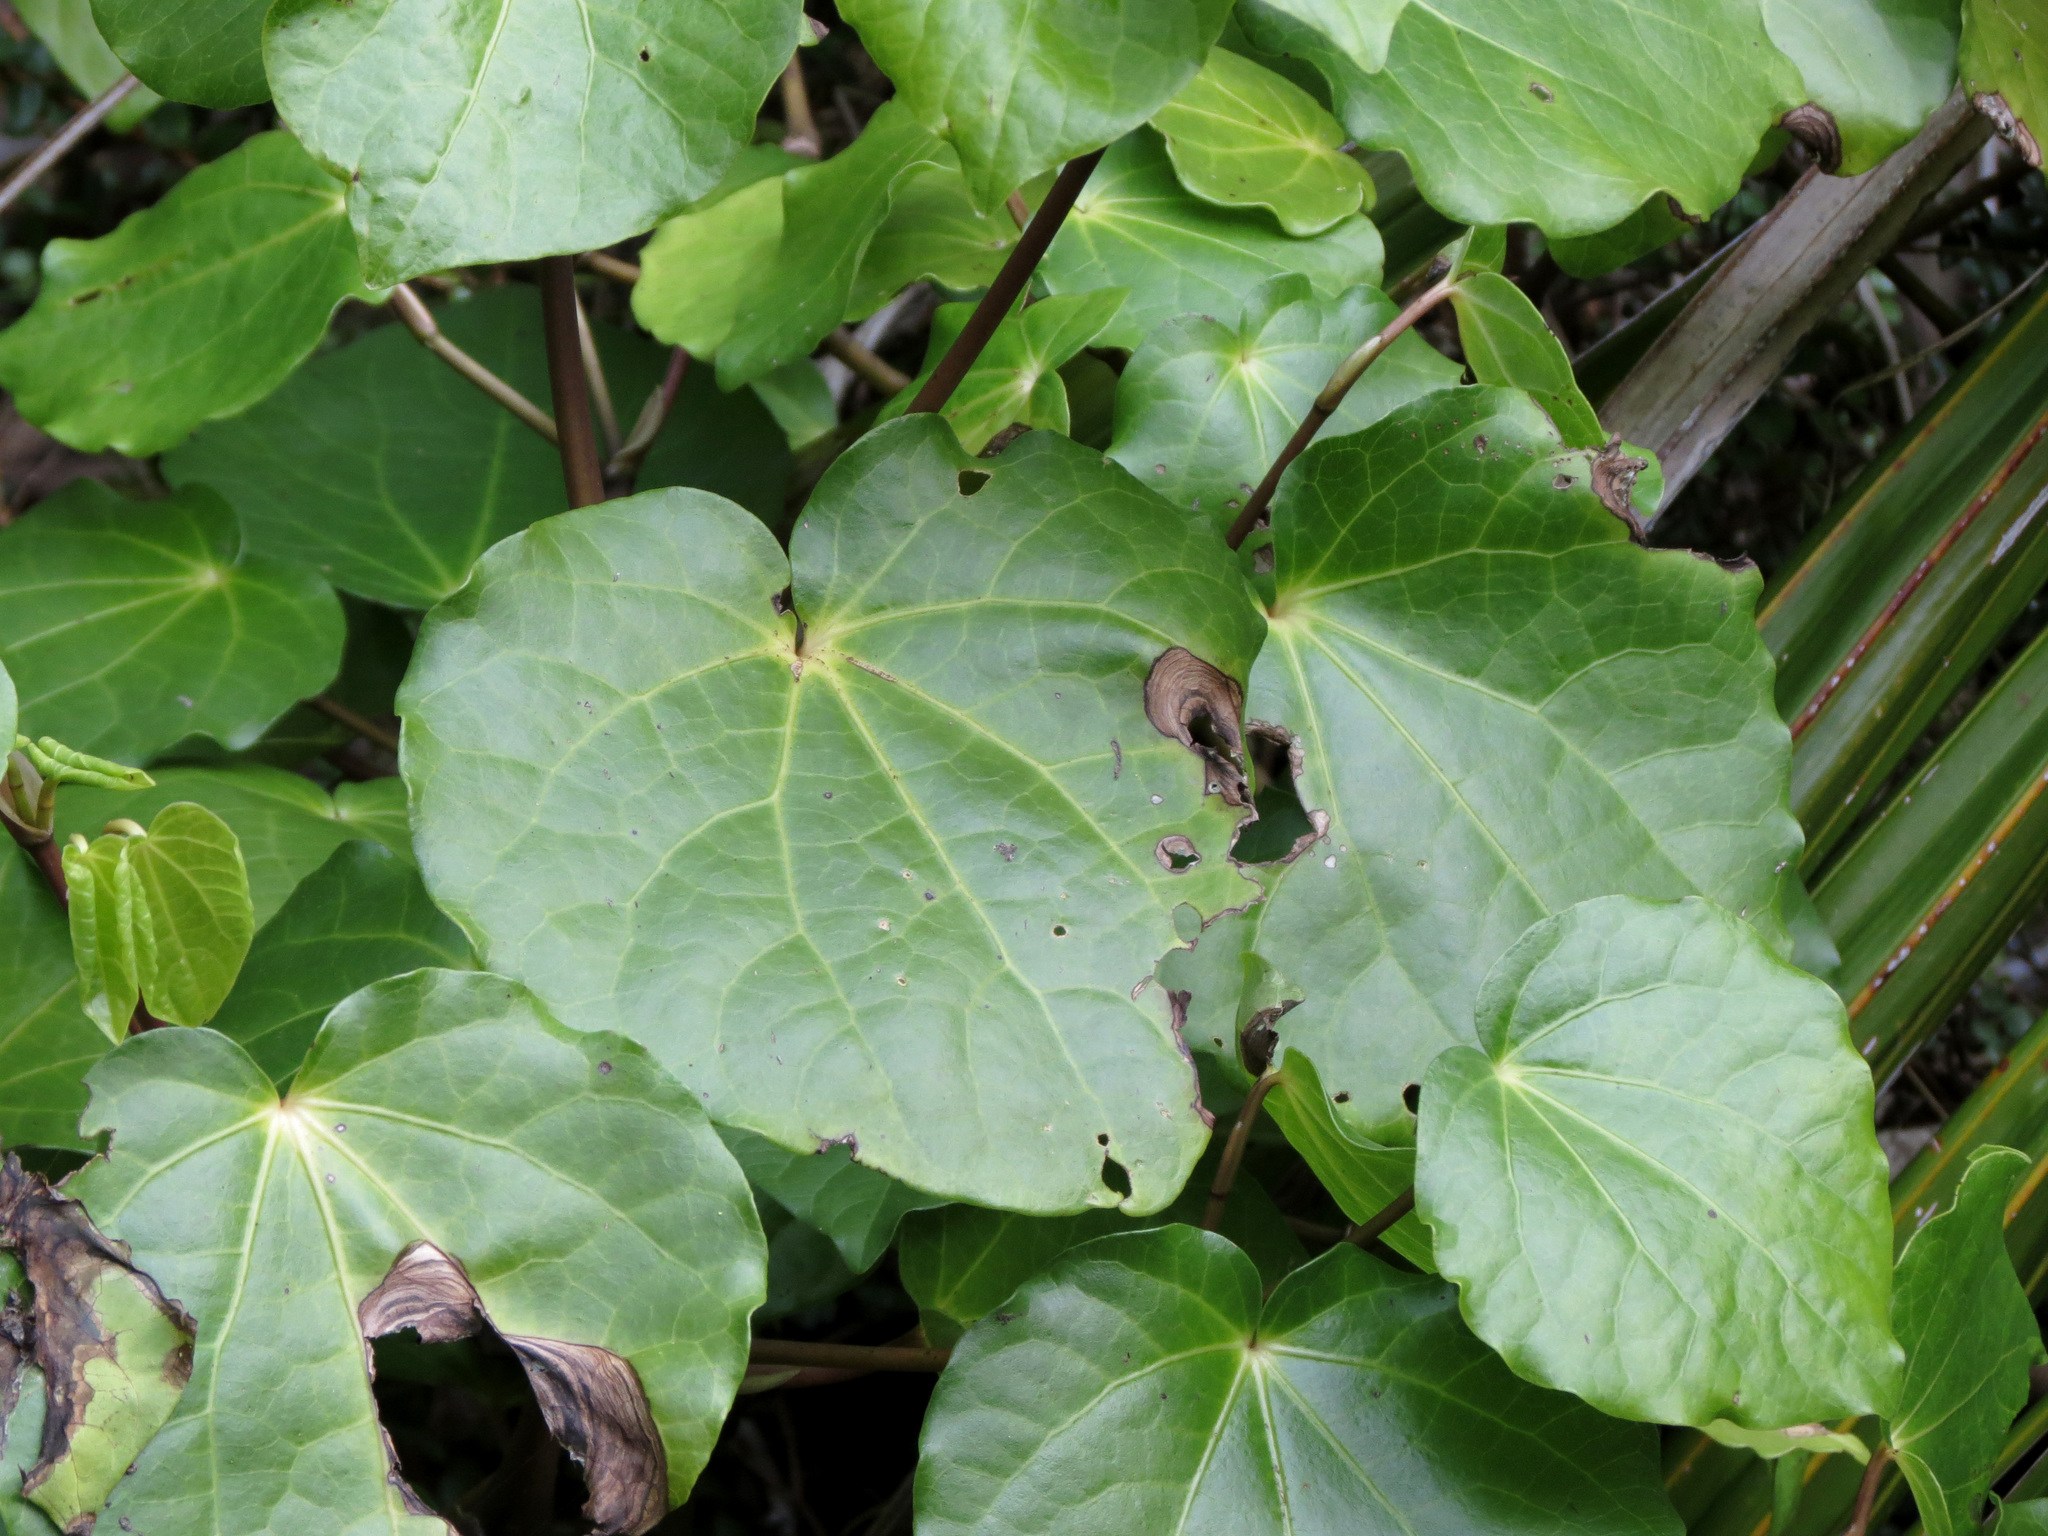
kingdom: Plantae
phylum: Tracheophyta
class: Magnoliopsida
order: Piperales
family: Piperaceae
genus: Macropiper
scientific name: Macropiper excelsum
